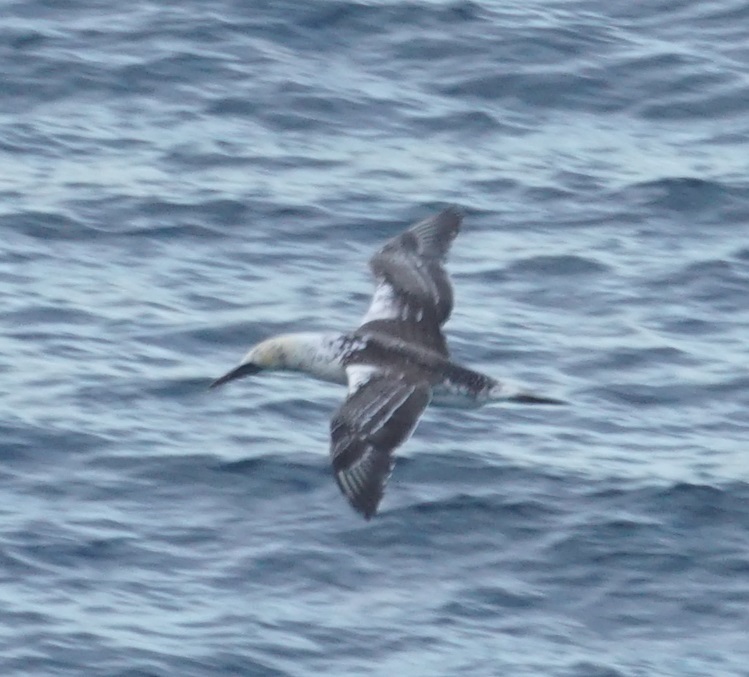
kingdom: Animalia
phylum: Chordata
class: Aves
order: Suliformes
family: Sulidae
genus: Morus
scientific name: Morus serrator
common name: Australasian gannet
